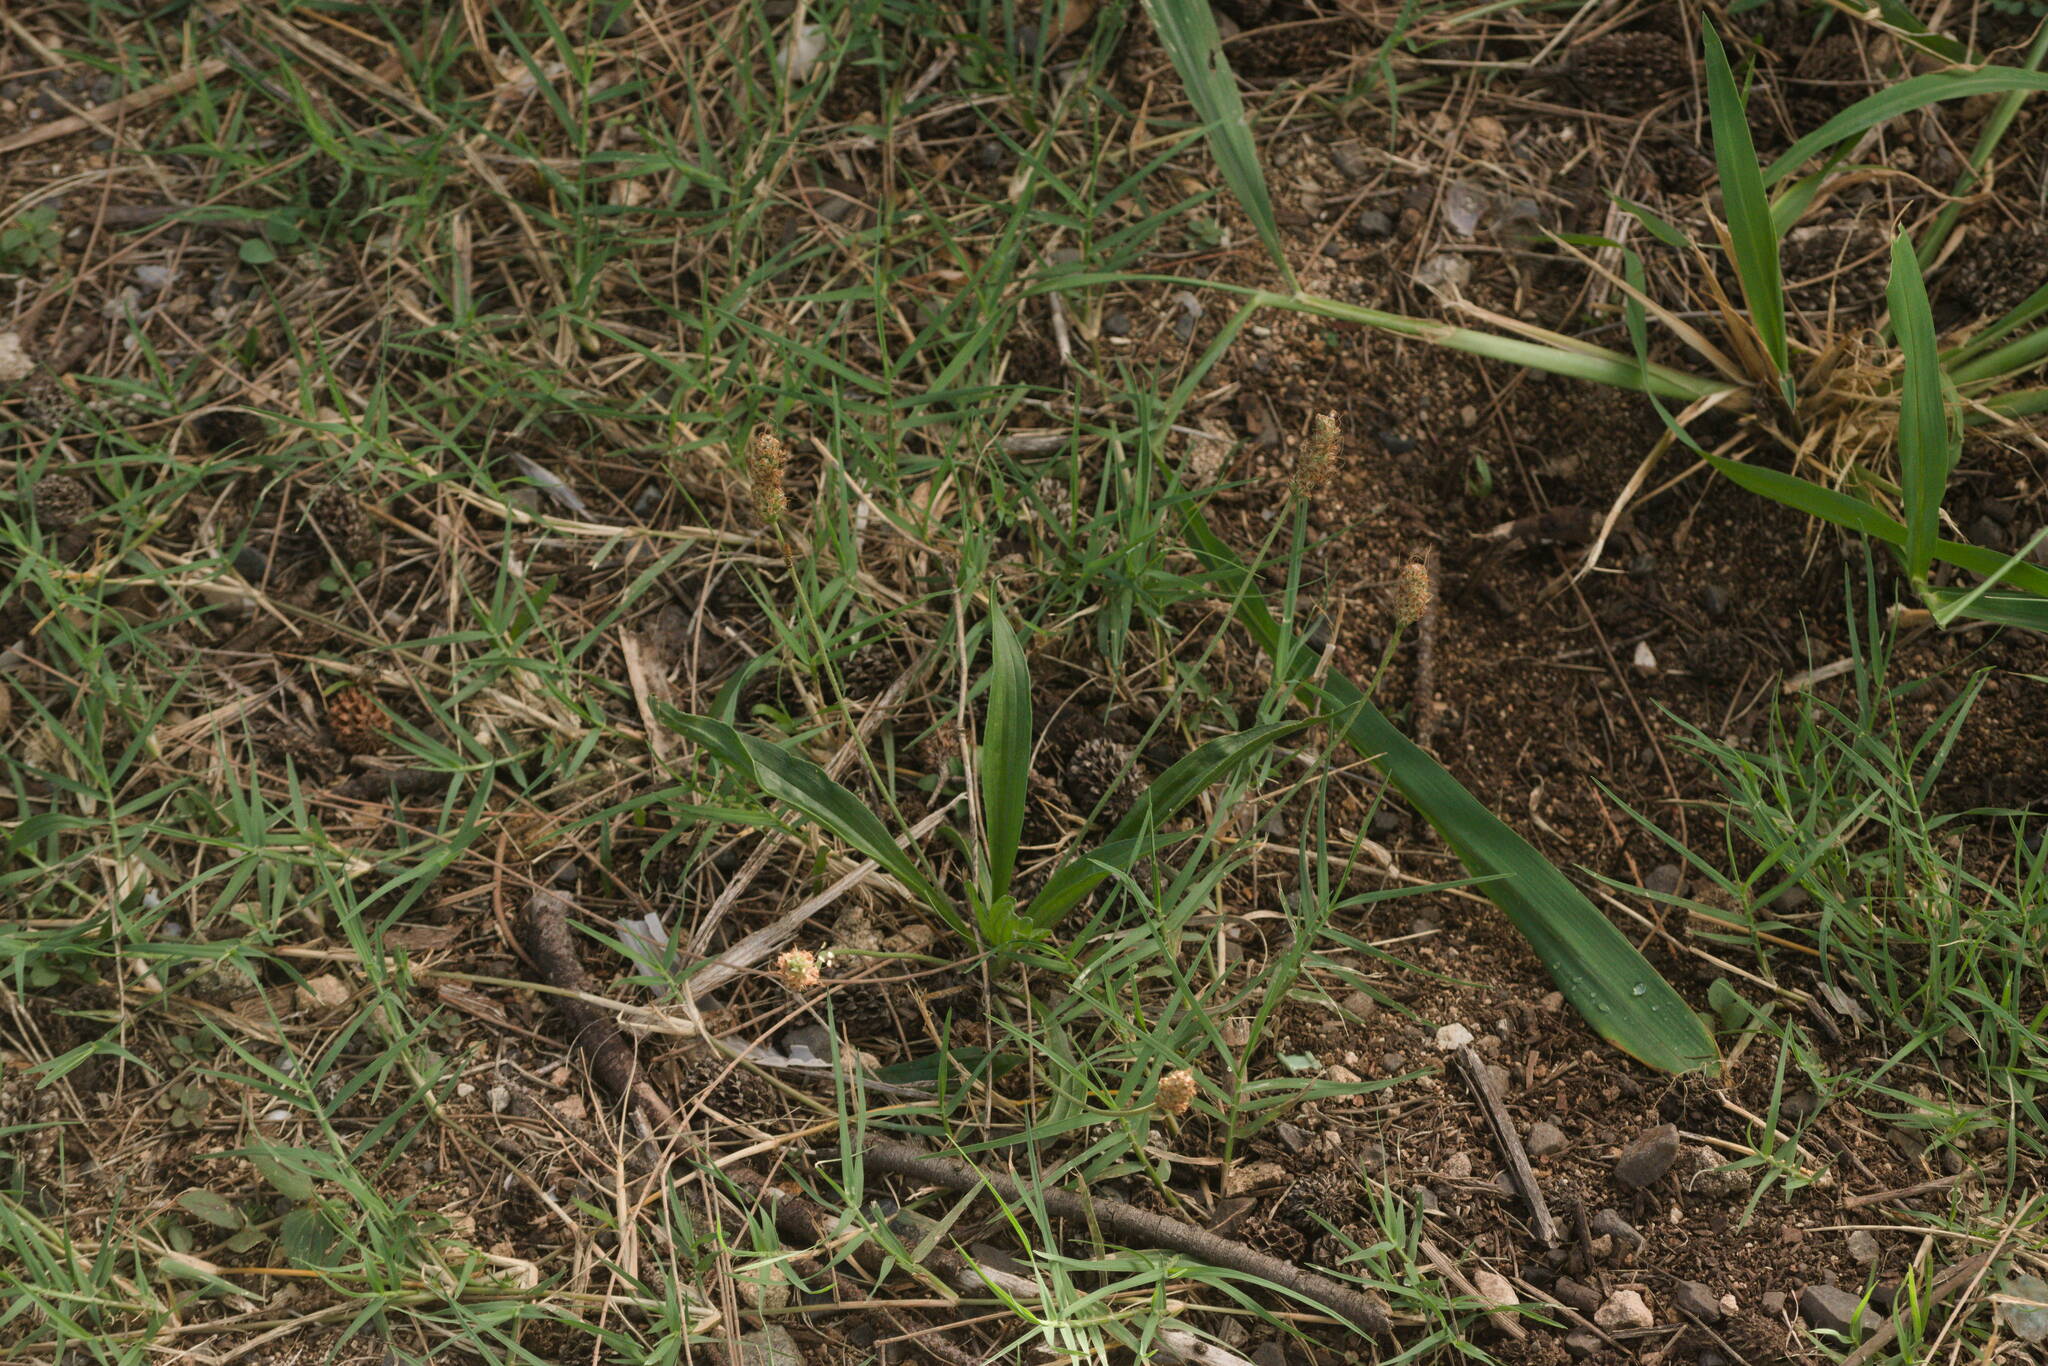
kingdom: Plantae
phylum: Tracheophyta
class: Magnoliopsida
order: Lamiales
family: Plantaginaceae
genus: Plantago
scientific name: Plantago lanceolata
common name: Ribwort plantain
